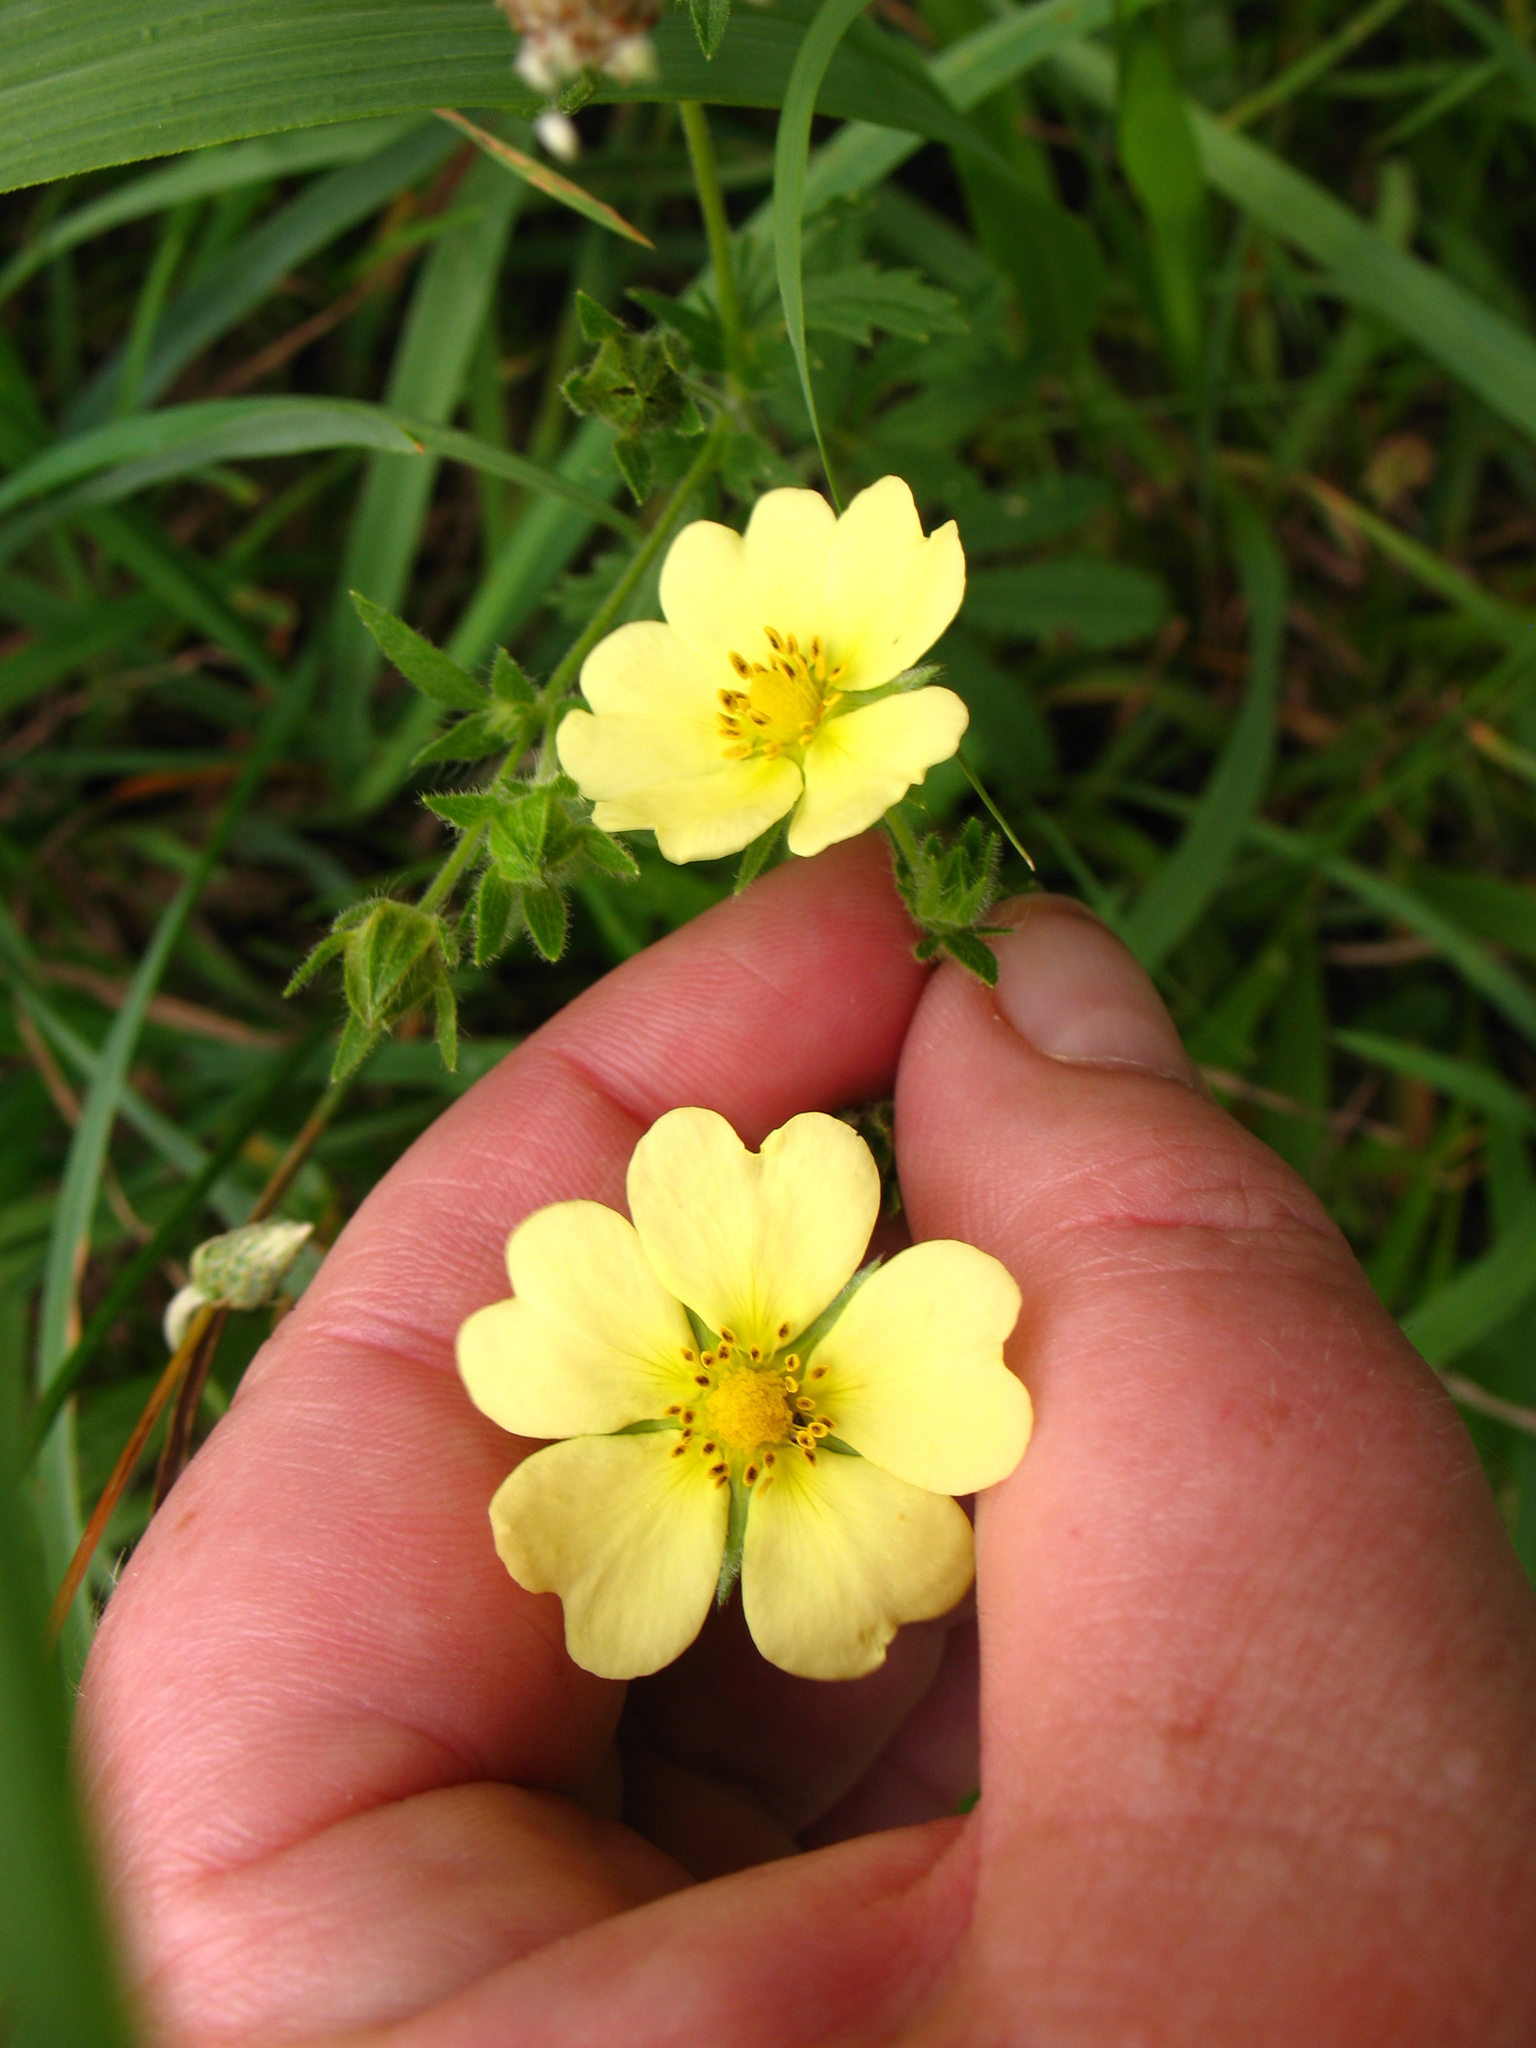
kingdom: Plantae
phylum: Tracheophyta
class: Magnoliopsida
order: Rosales
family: Rosaceae
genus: Potentilla
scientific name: Potentilla recta
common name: Sulphur cinquefoil
